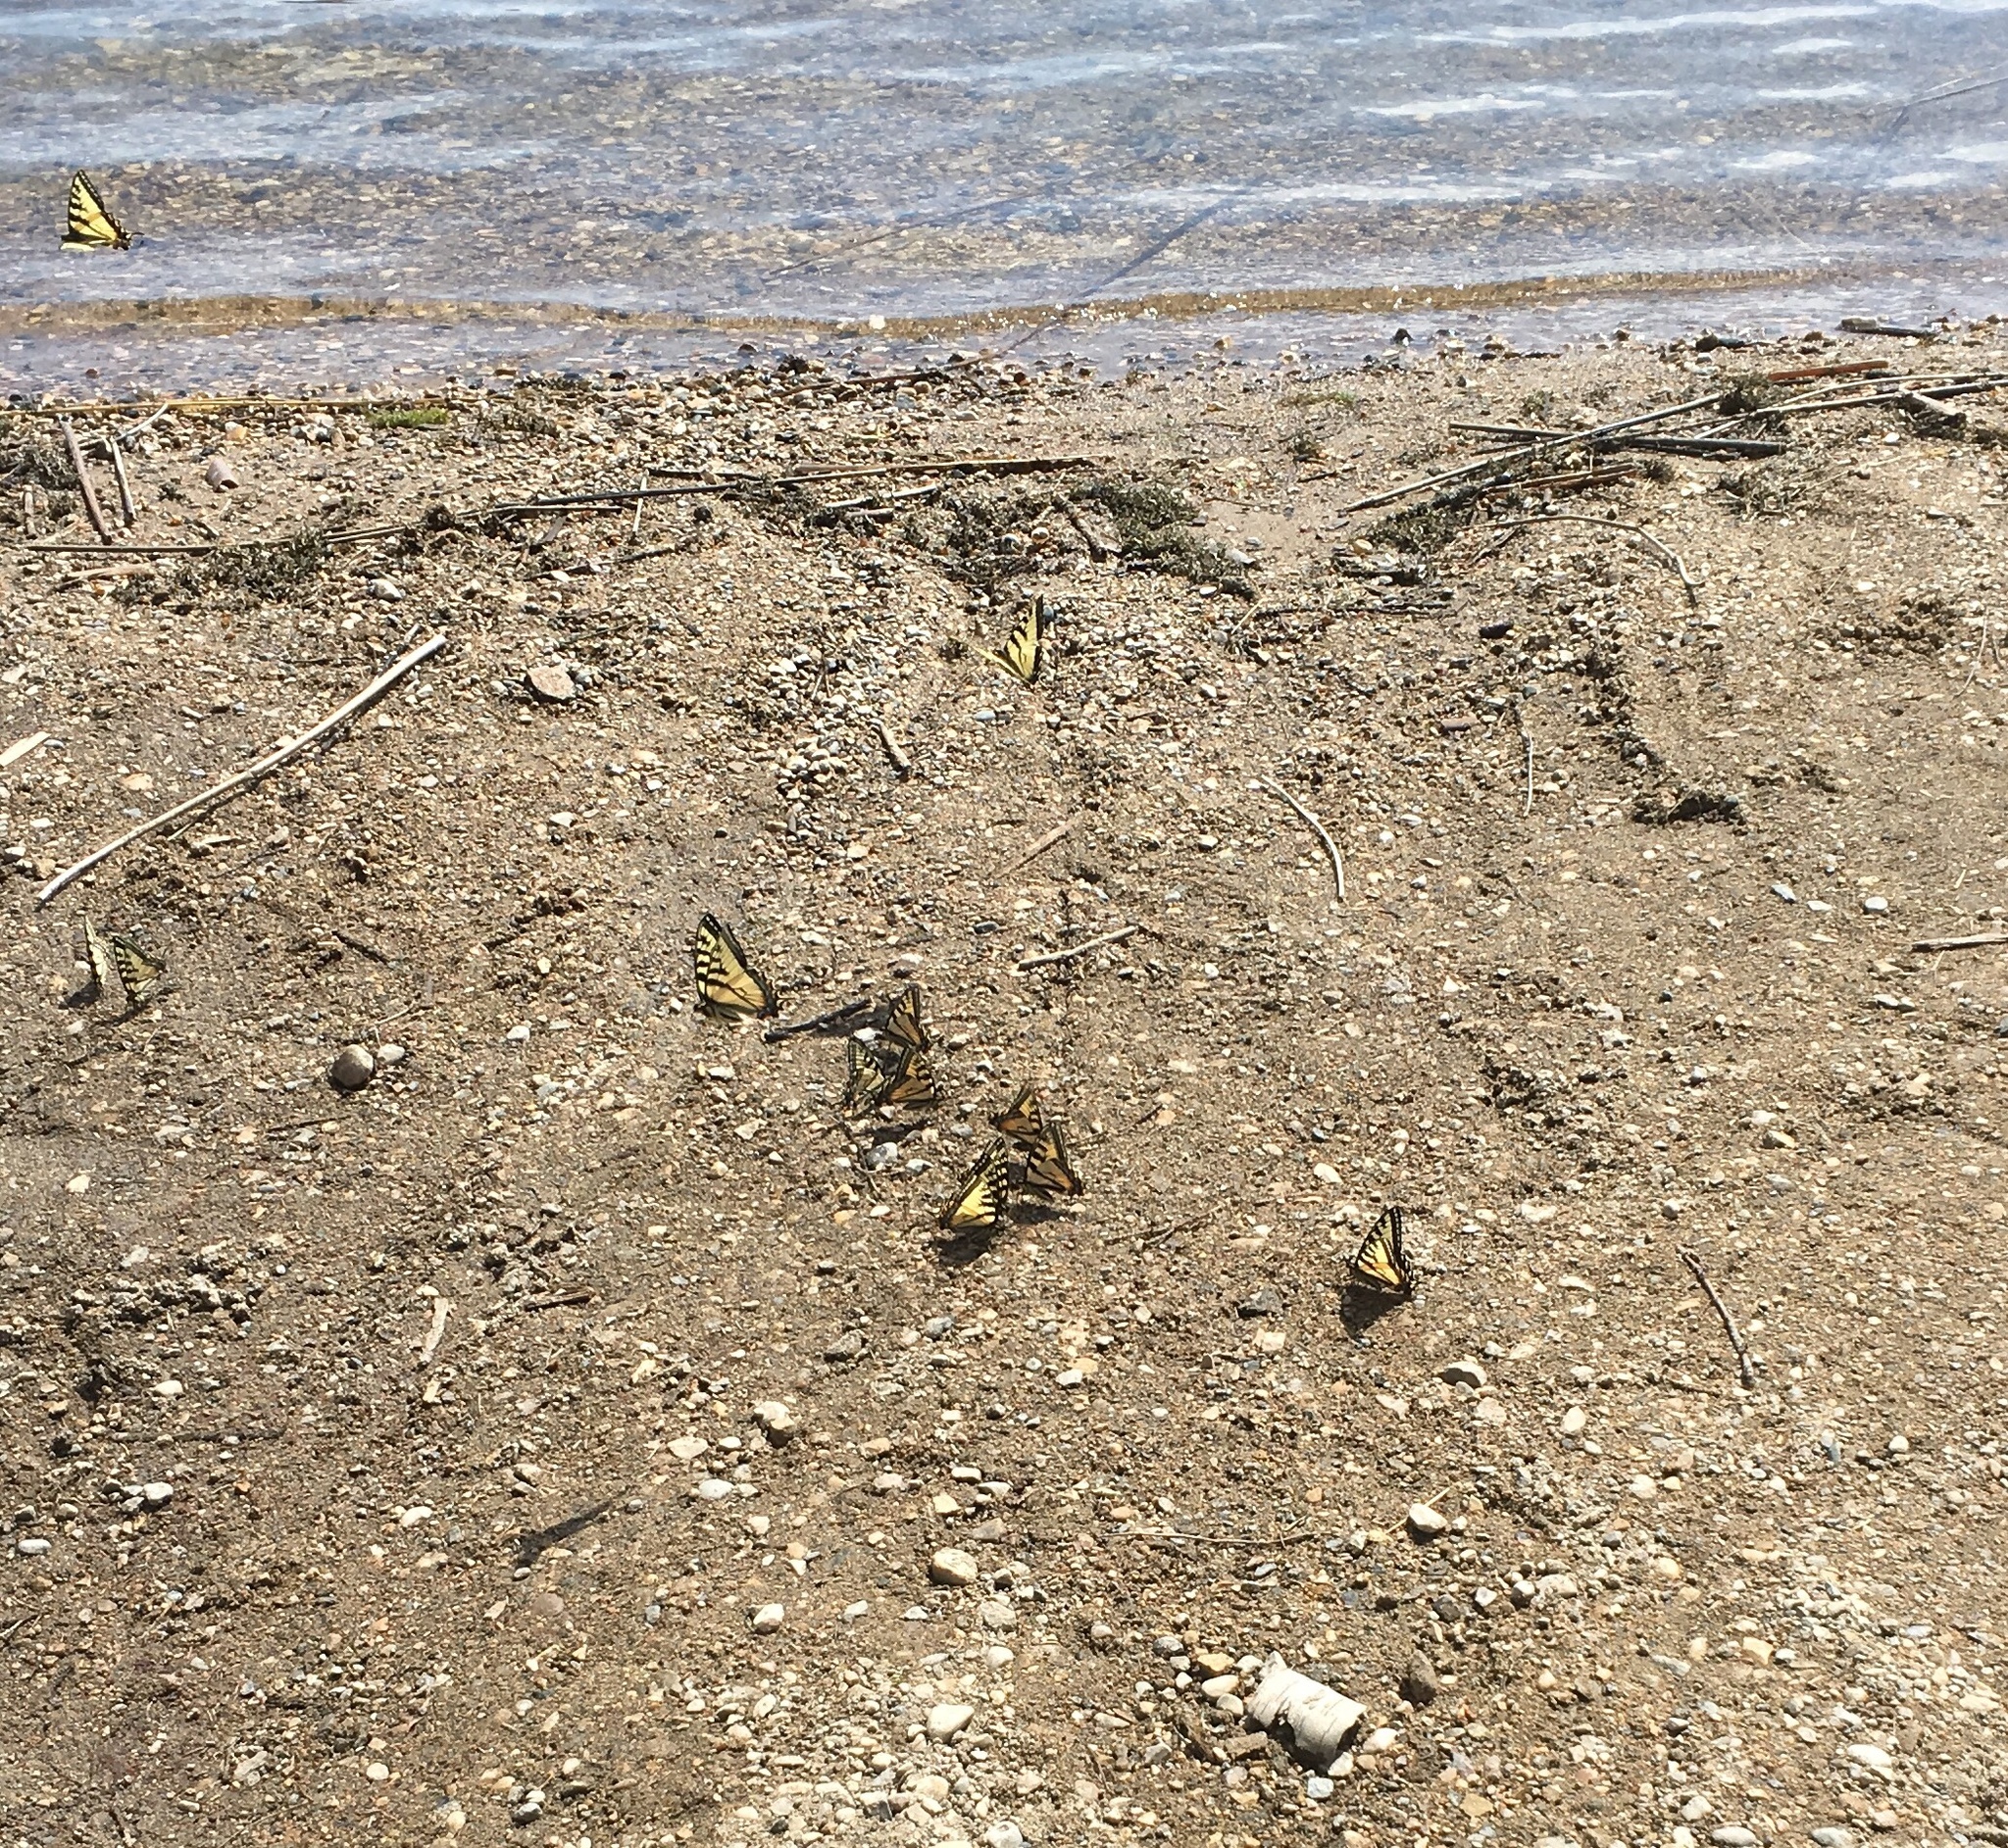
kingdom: Animalia
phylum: Arthropoda
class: Insecta
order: Lepidoptera
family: Papilionidae
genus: Papilio
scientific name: Papilio canadensis
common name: Canadian tiger swallowtail
